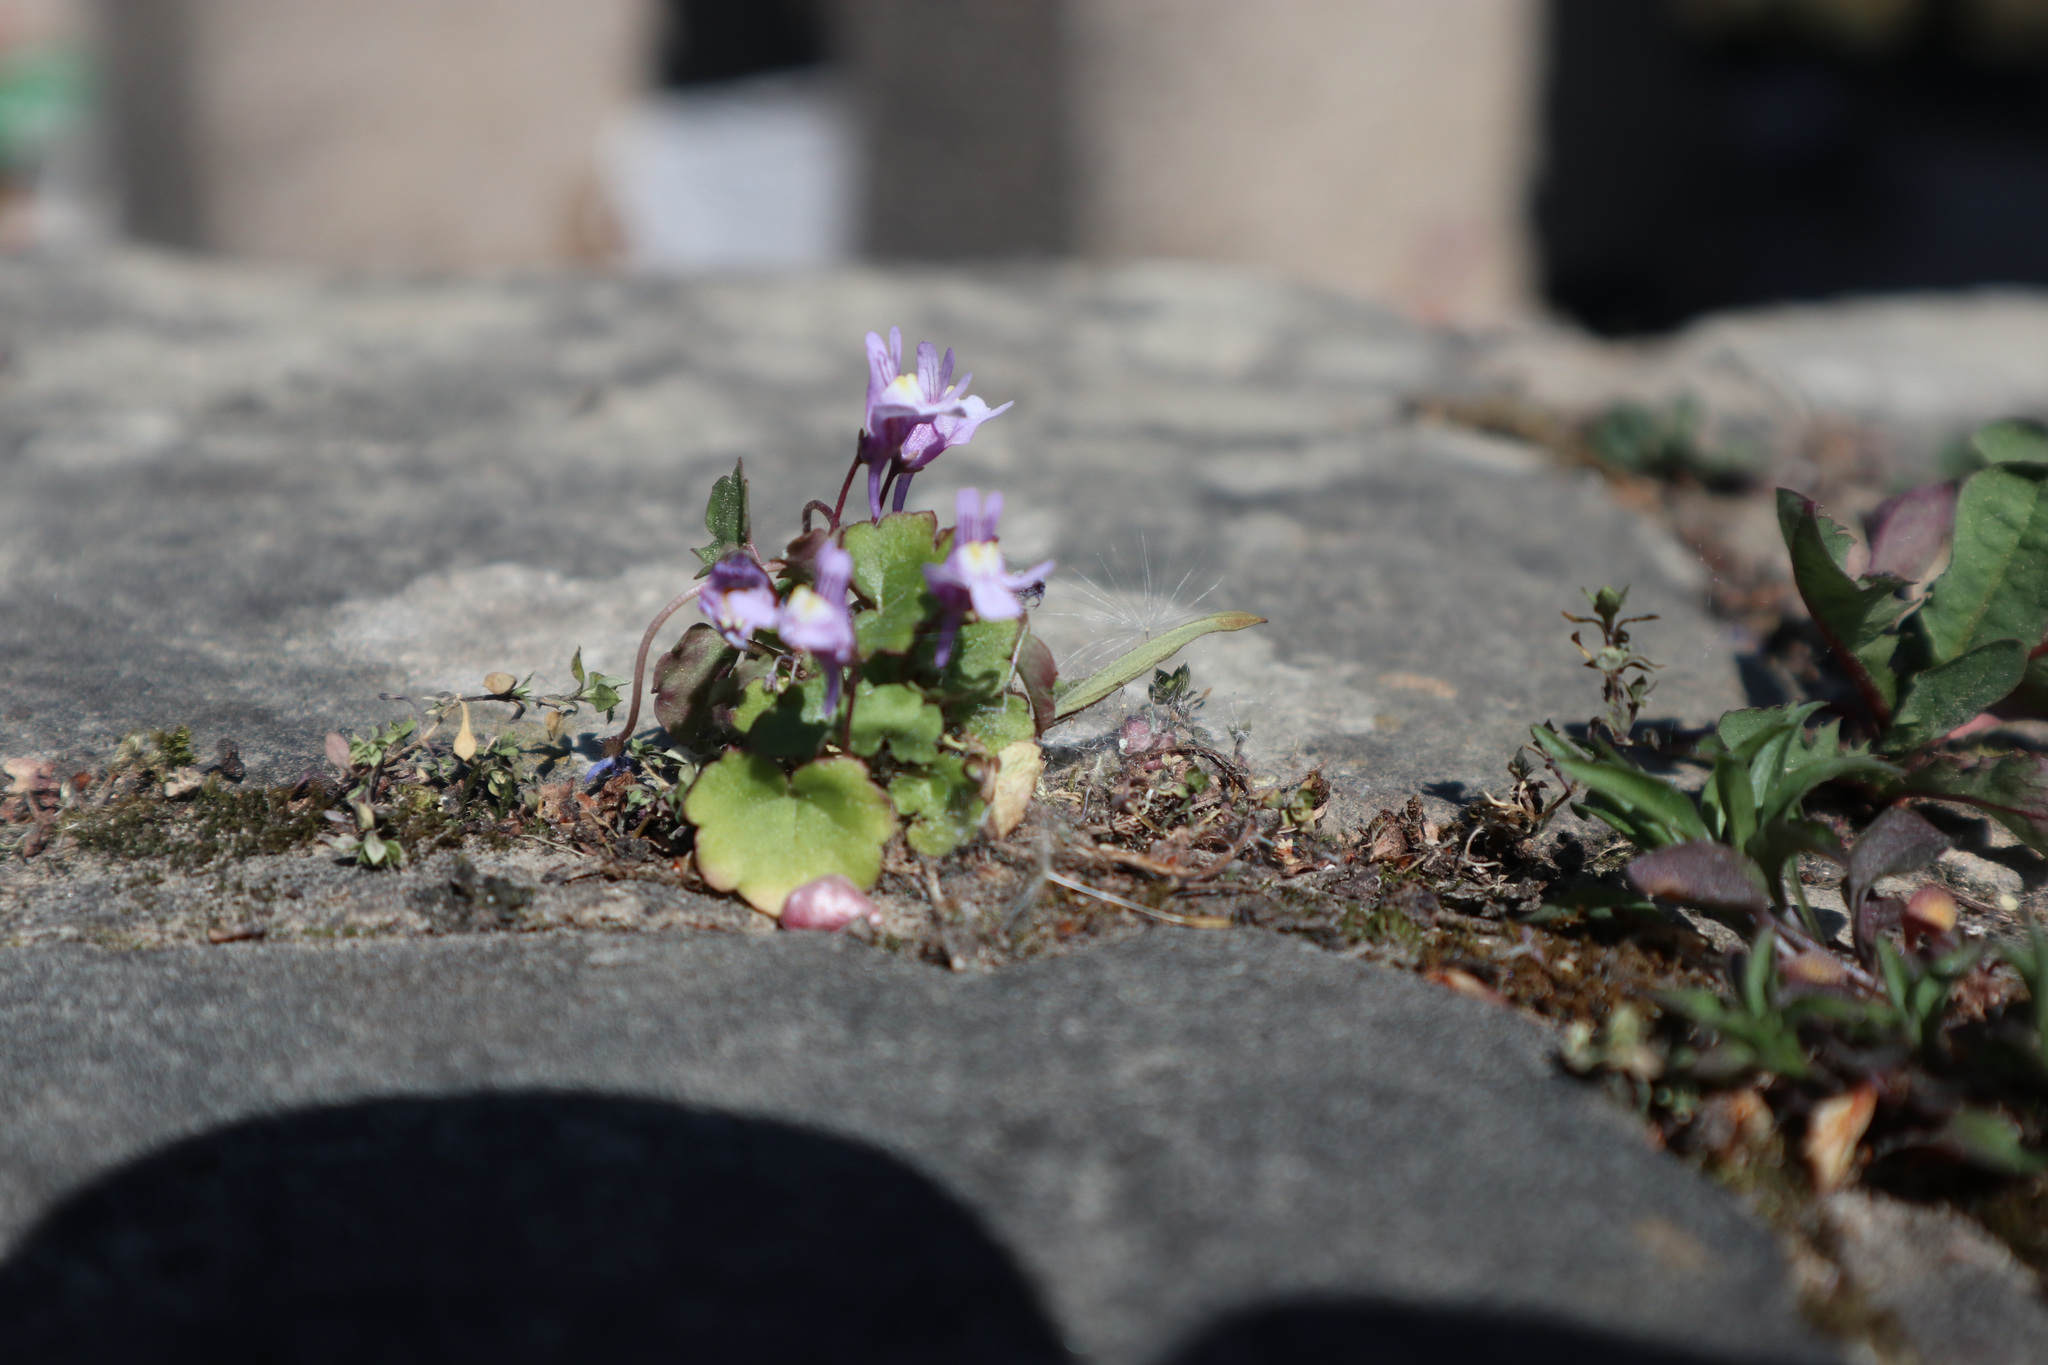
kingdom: Plantae
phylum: Tracheophyta
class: Magnoliopsida
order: Lamiales
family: Plantaginaceae
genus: Cymbalaria
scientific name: Cymbalaria muralis
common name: Ivy-leaved toadflax
